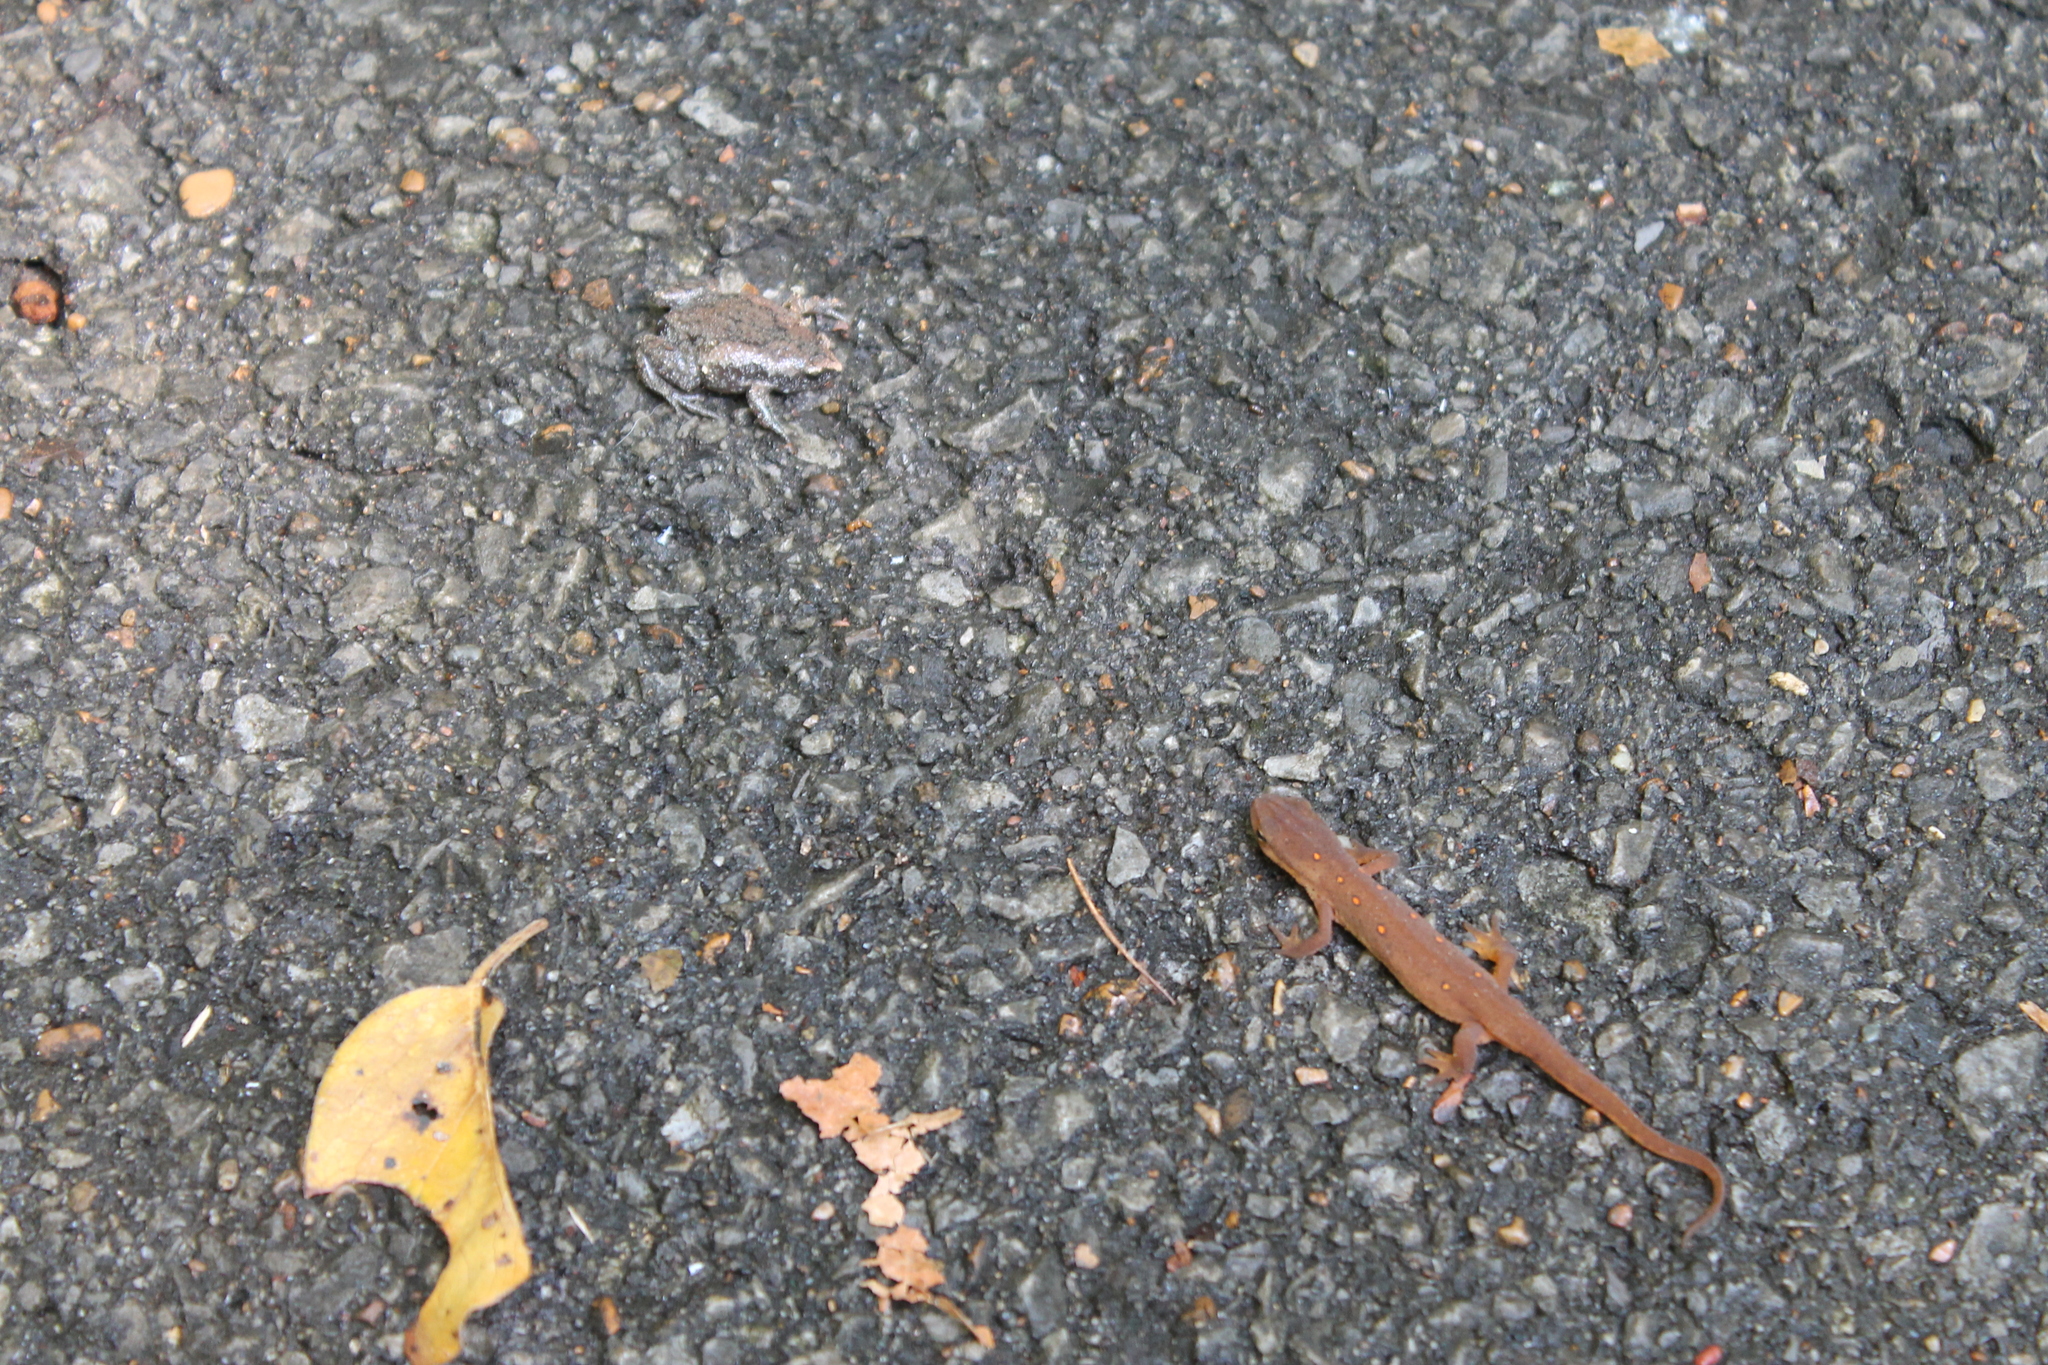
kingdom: Animalia
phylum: Chordata
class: Amphibia
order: Anura
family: Microhylidae
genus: Gastrophryne
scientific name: Gastrophryne carolinensis
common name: Eastern narrowmouth toad
